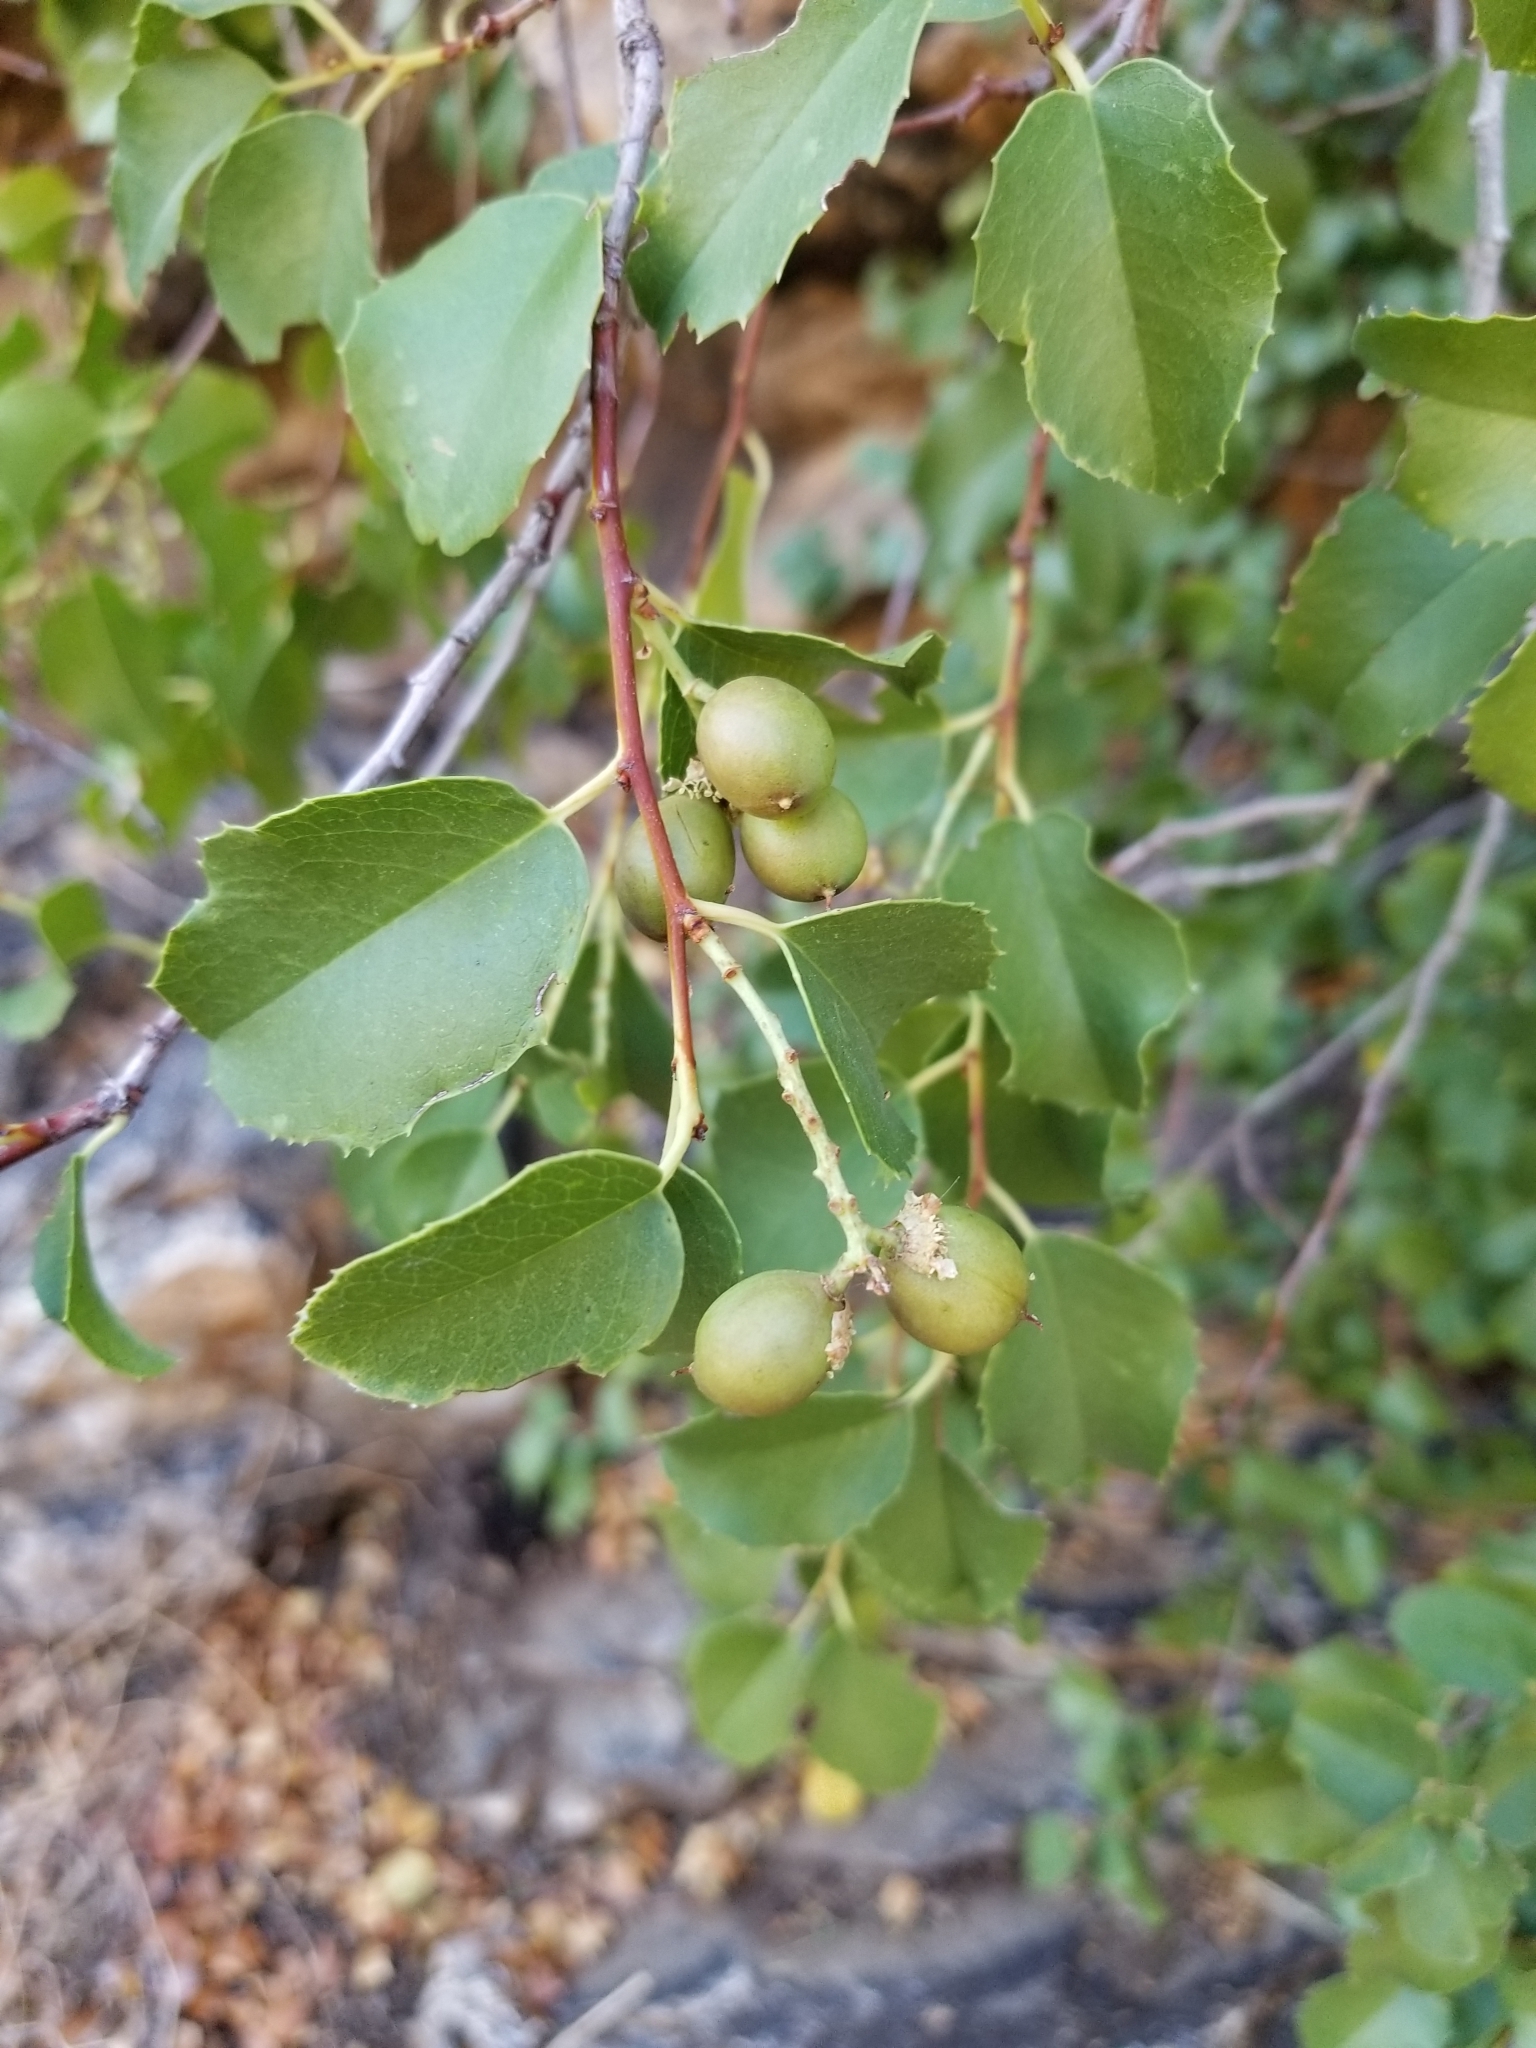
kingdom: Plantae
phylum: Tracheophyta
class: Magnoliopsida
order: Rosales
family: Rosaceae
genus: Prunus
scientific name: Prunus ilicifolia
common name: Hollyleaf cherry
